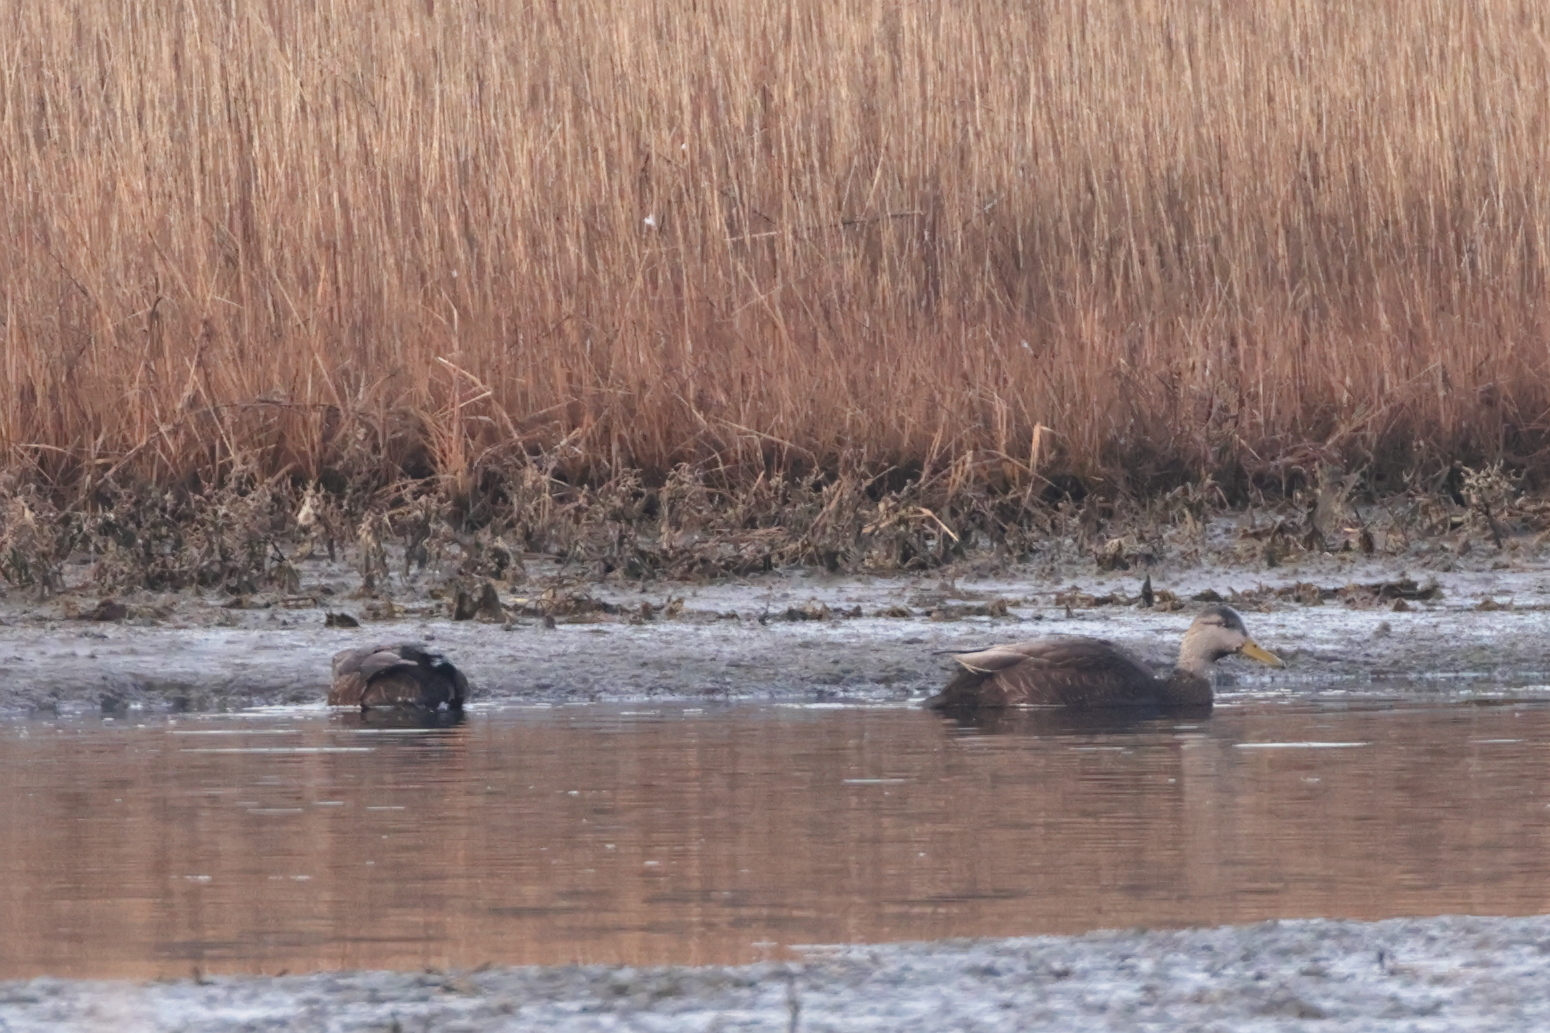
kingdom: Animalia
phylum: Chordata
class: Aves
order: Anseriformes
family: Anatidae
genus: Anas
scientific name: Anas rubripes
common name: American black duck
